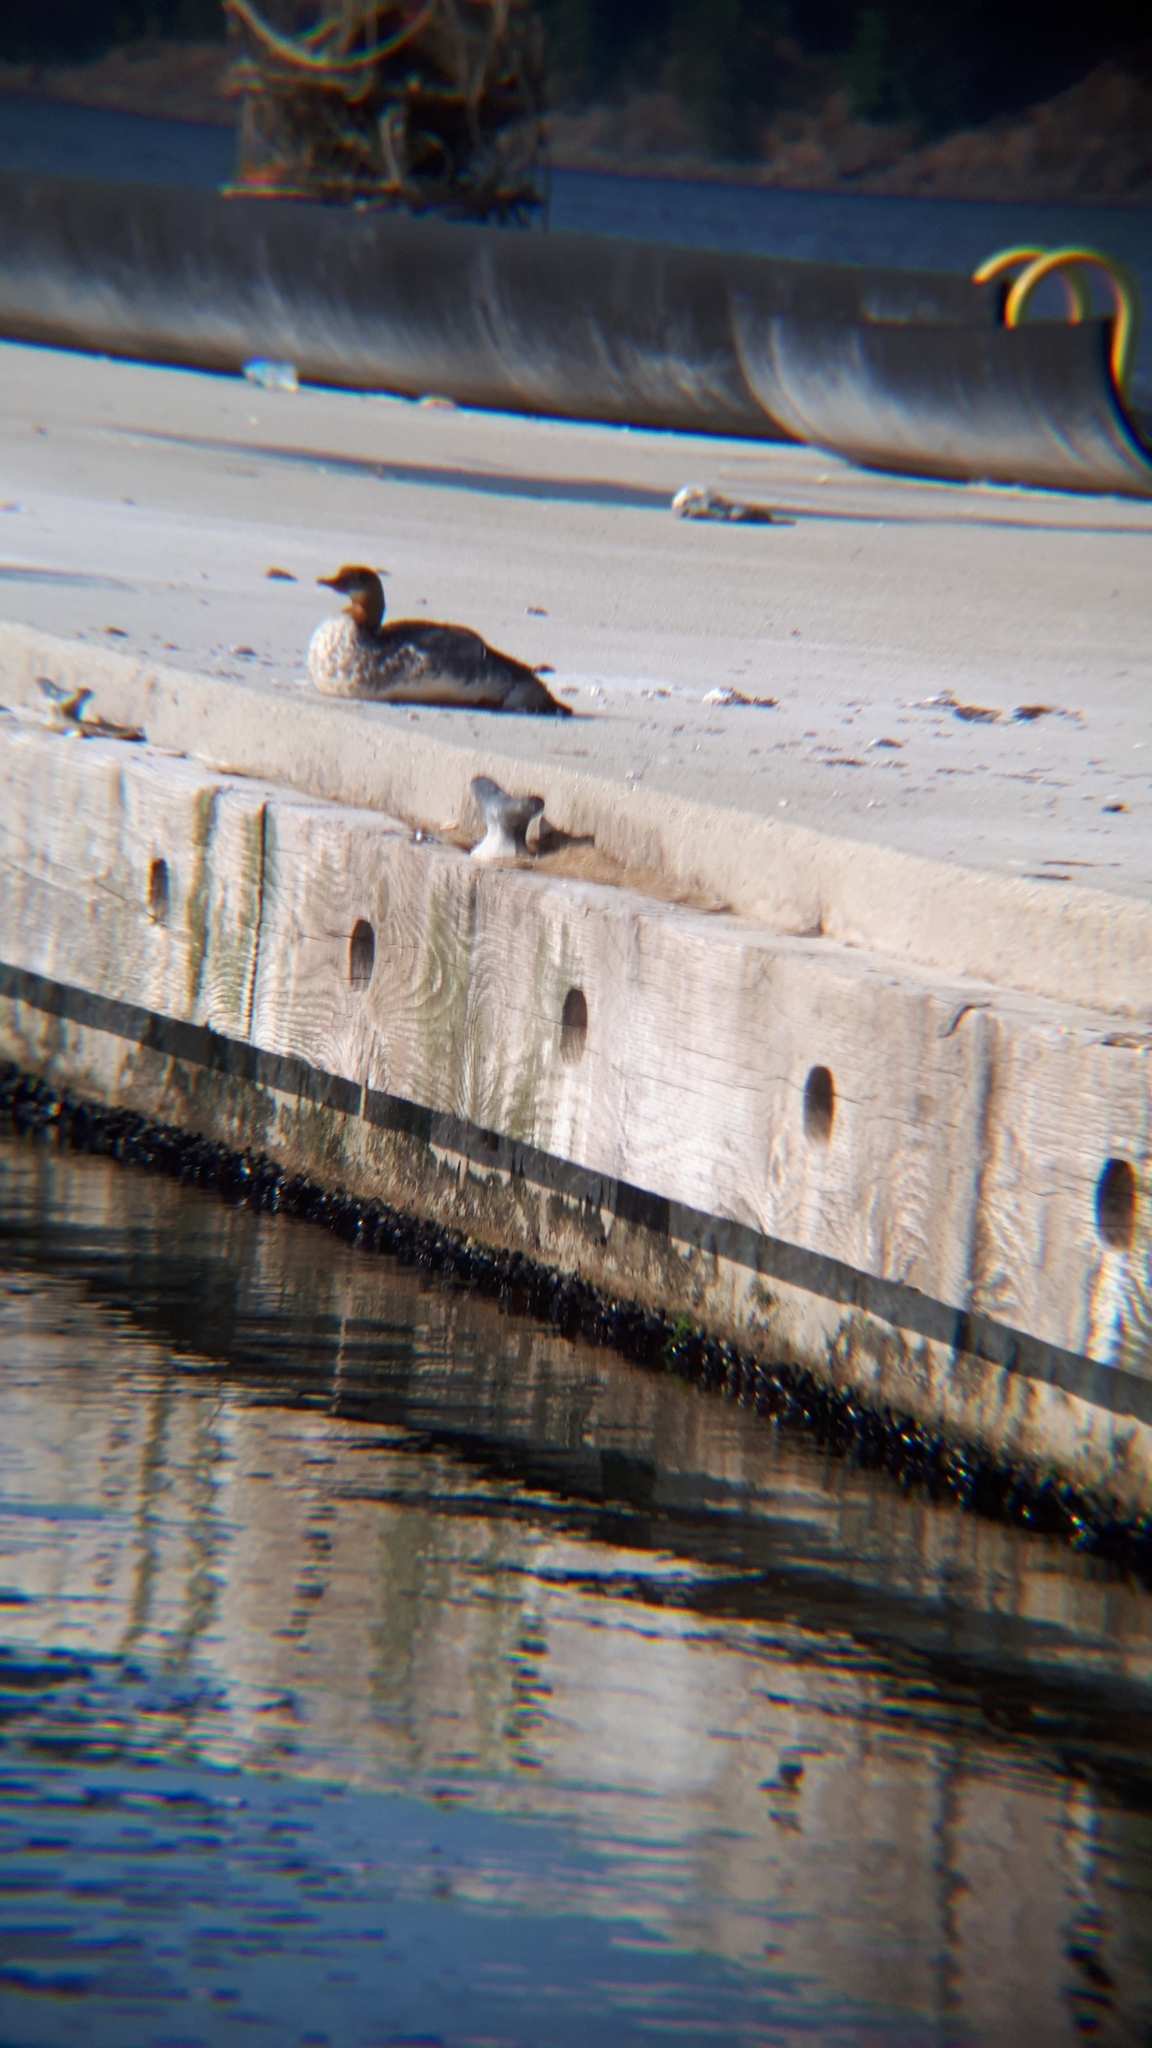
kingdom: Animalia
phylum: Chordata
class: Aves
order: Anseriformes
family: Anatidae
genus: Mergus
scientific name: Mergus merganser
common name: Common merganser
